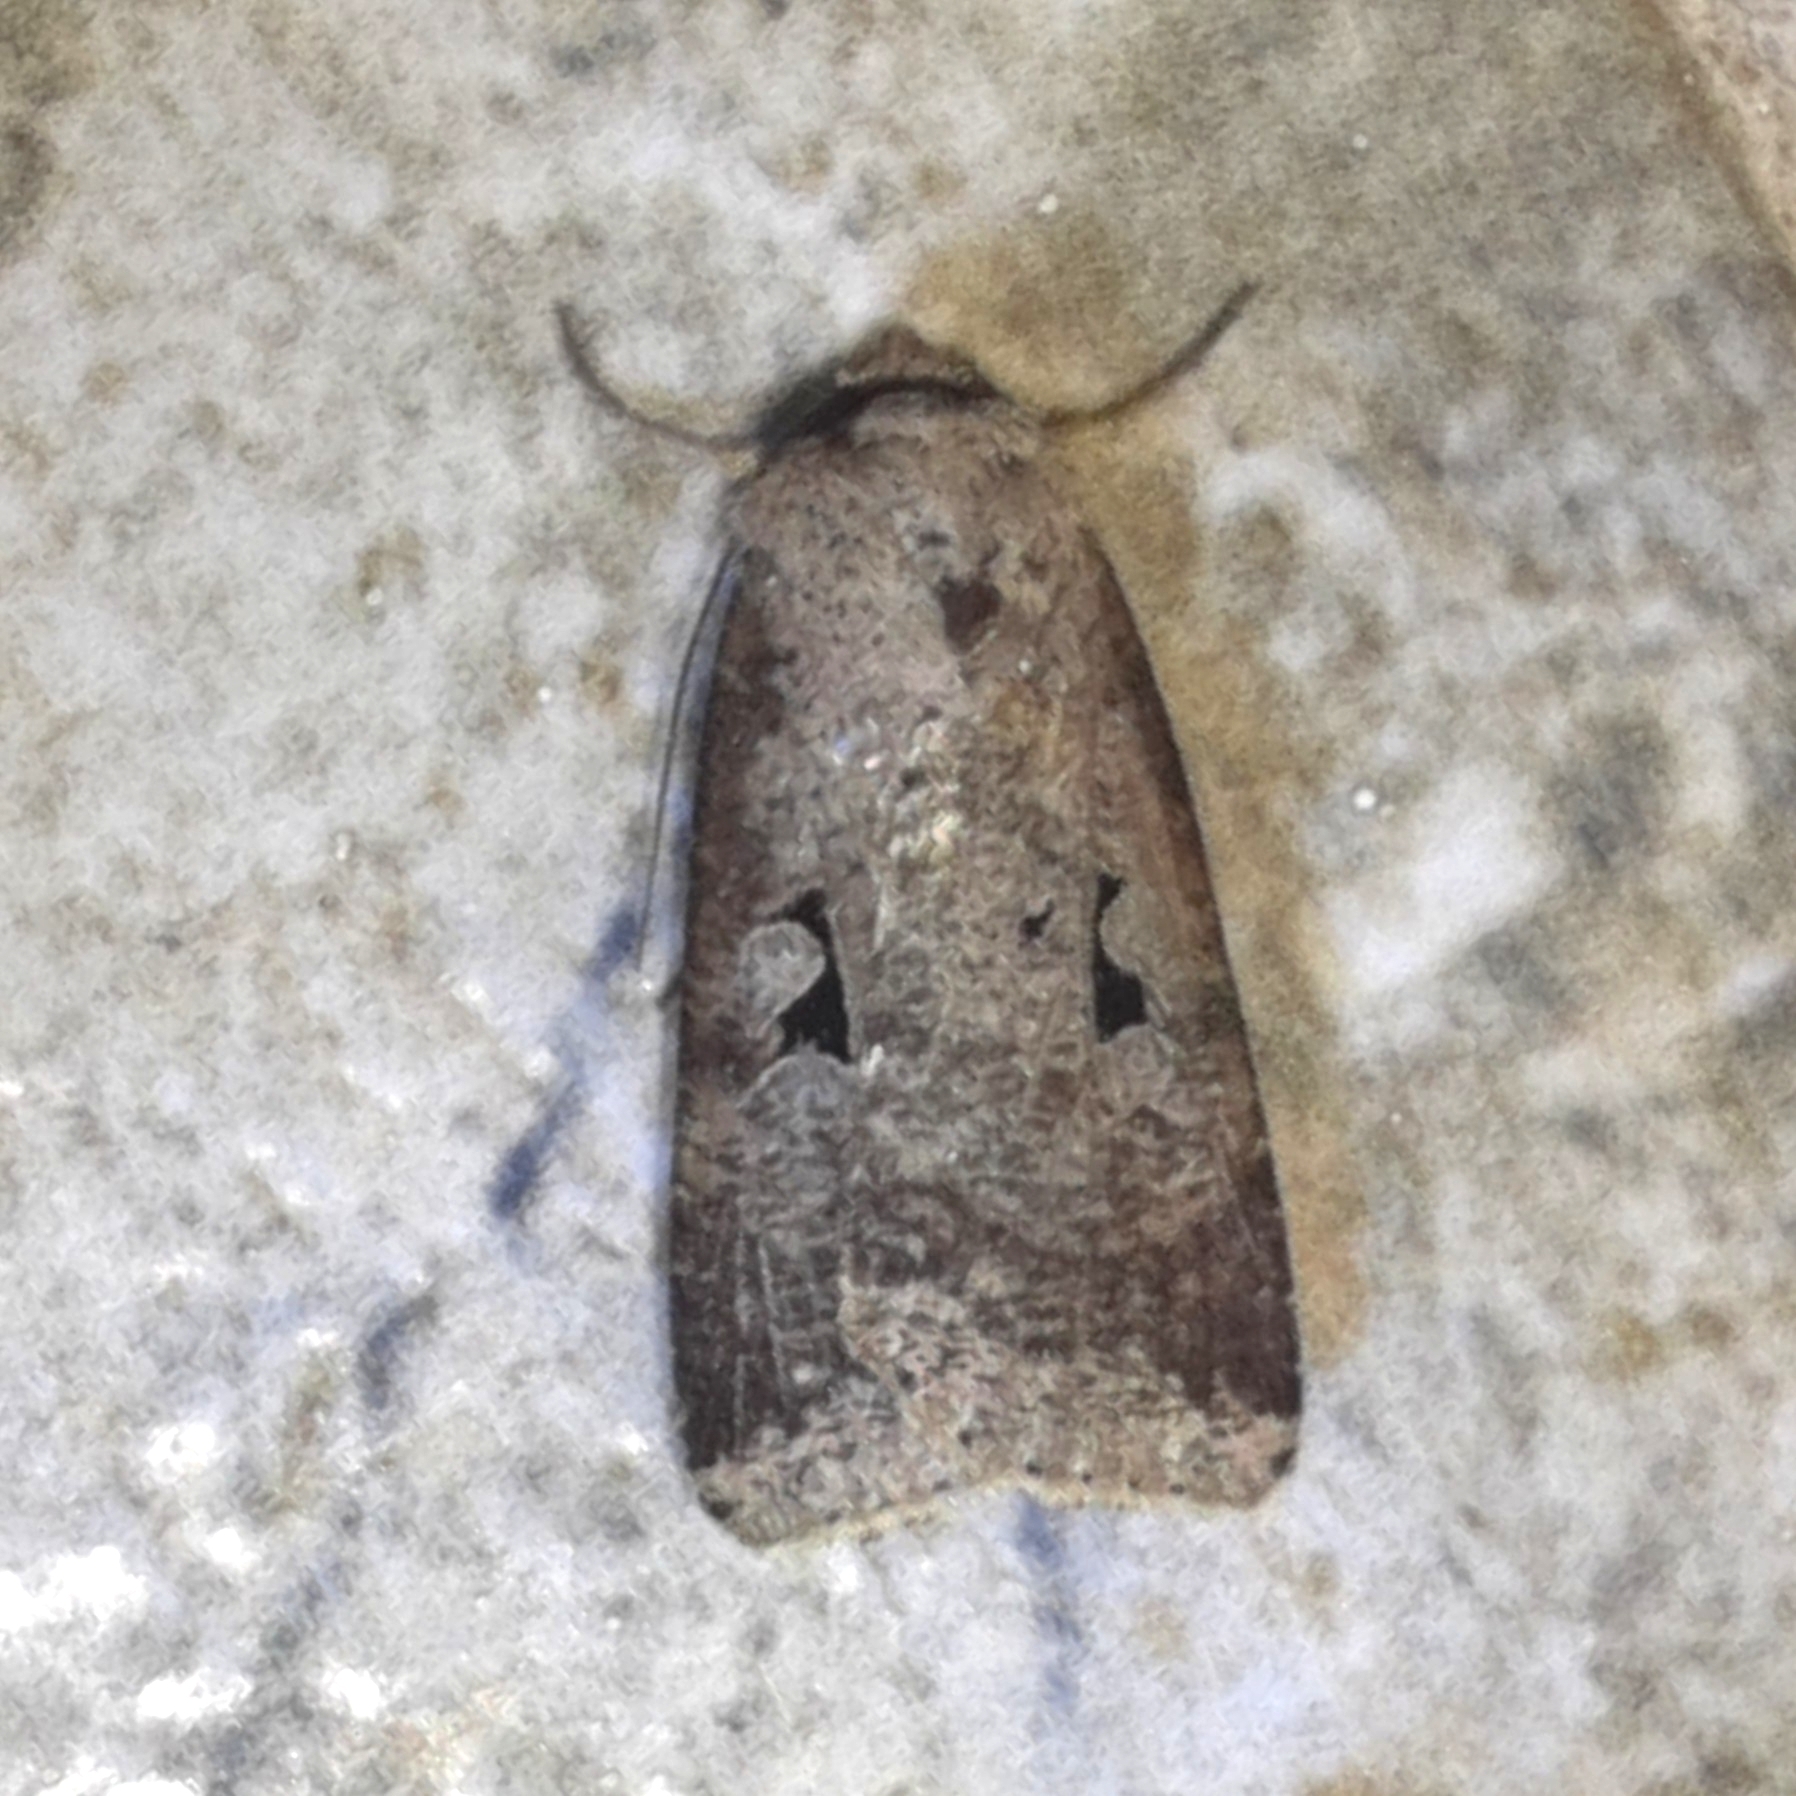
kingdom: Animalia
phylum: Arthropoda
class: Insecta
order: Lepidoptera
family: Noctuidae
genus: Praina
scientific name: Praina
